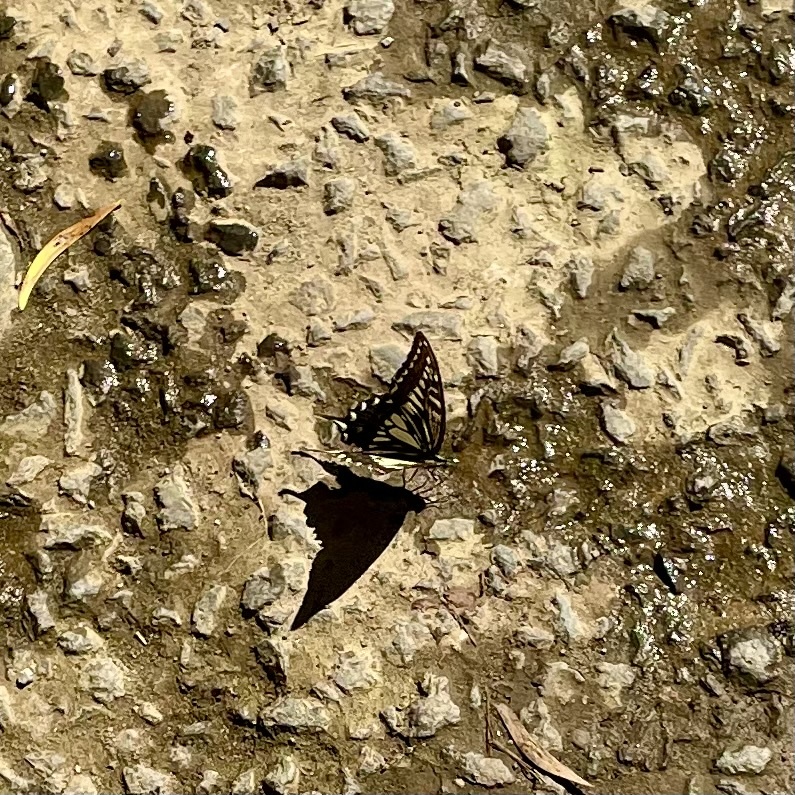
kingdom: Animalia
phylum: Arthropoda
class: Insecta
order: Lepidoptera
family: Papilionidae
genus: Papilio
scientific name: Papilio xuthus
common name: Asian swallowtail
